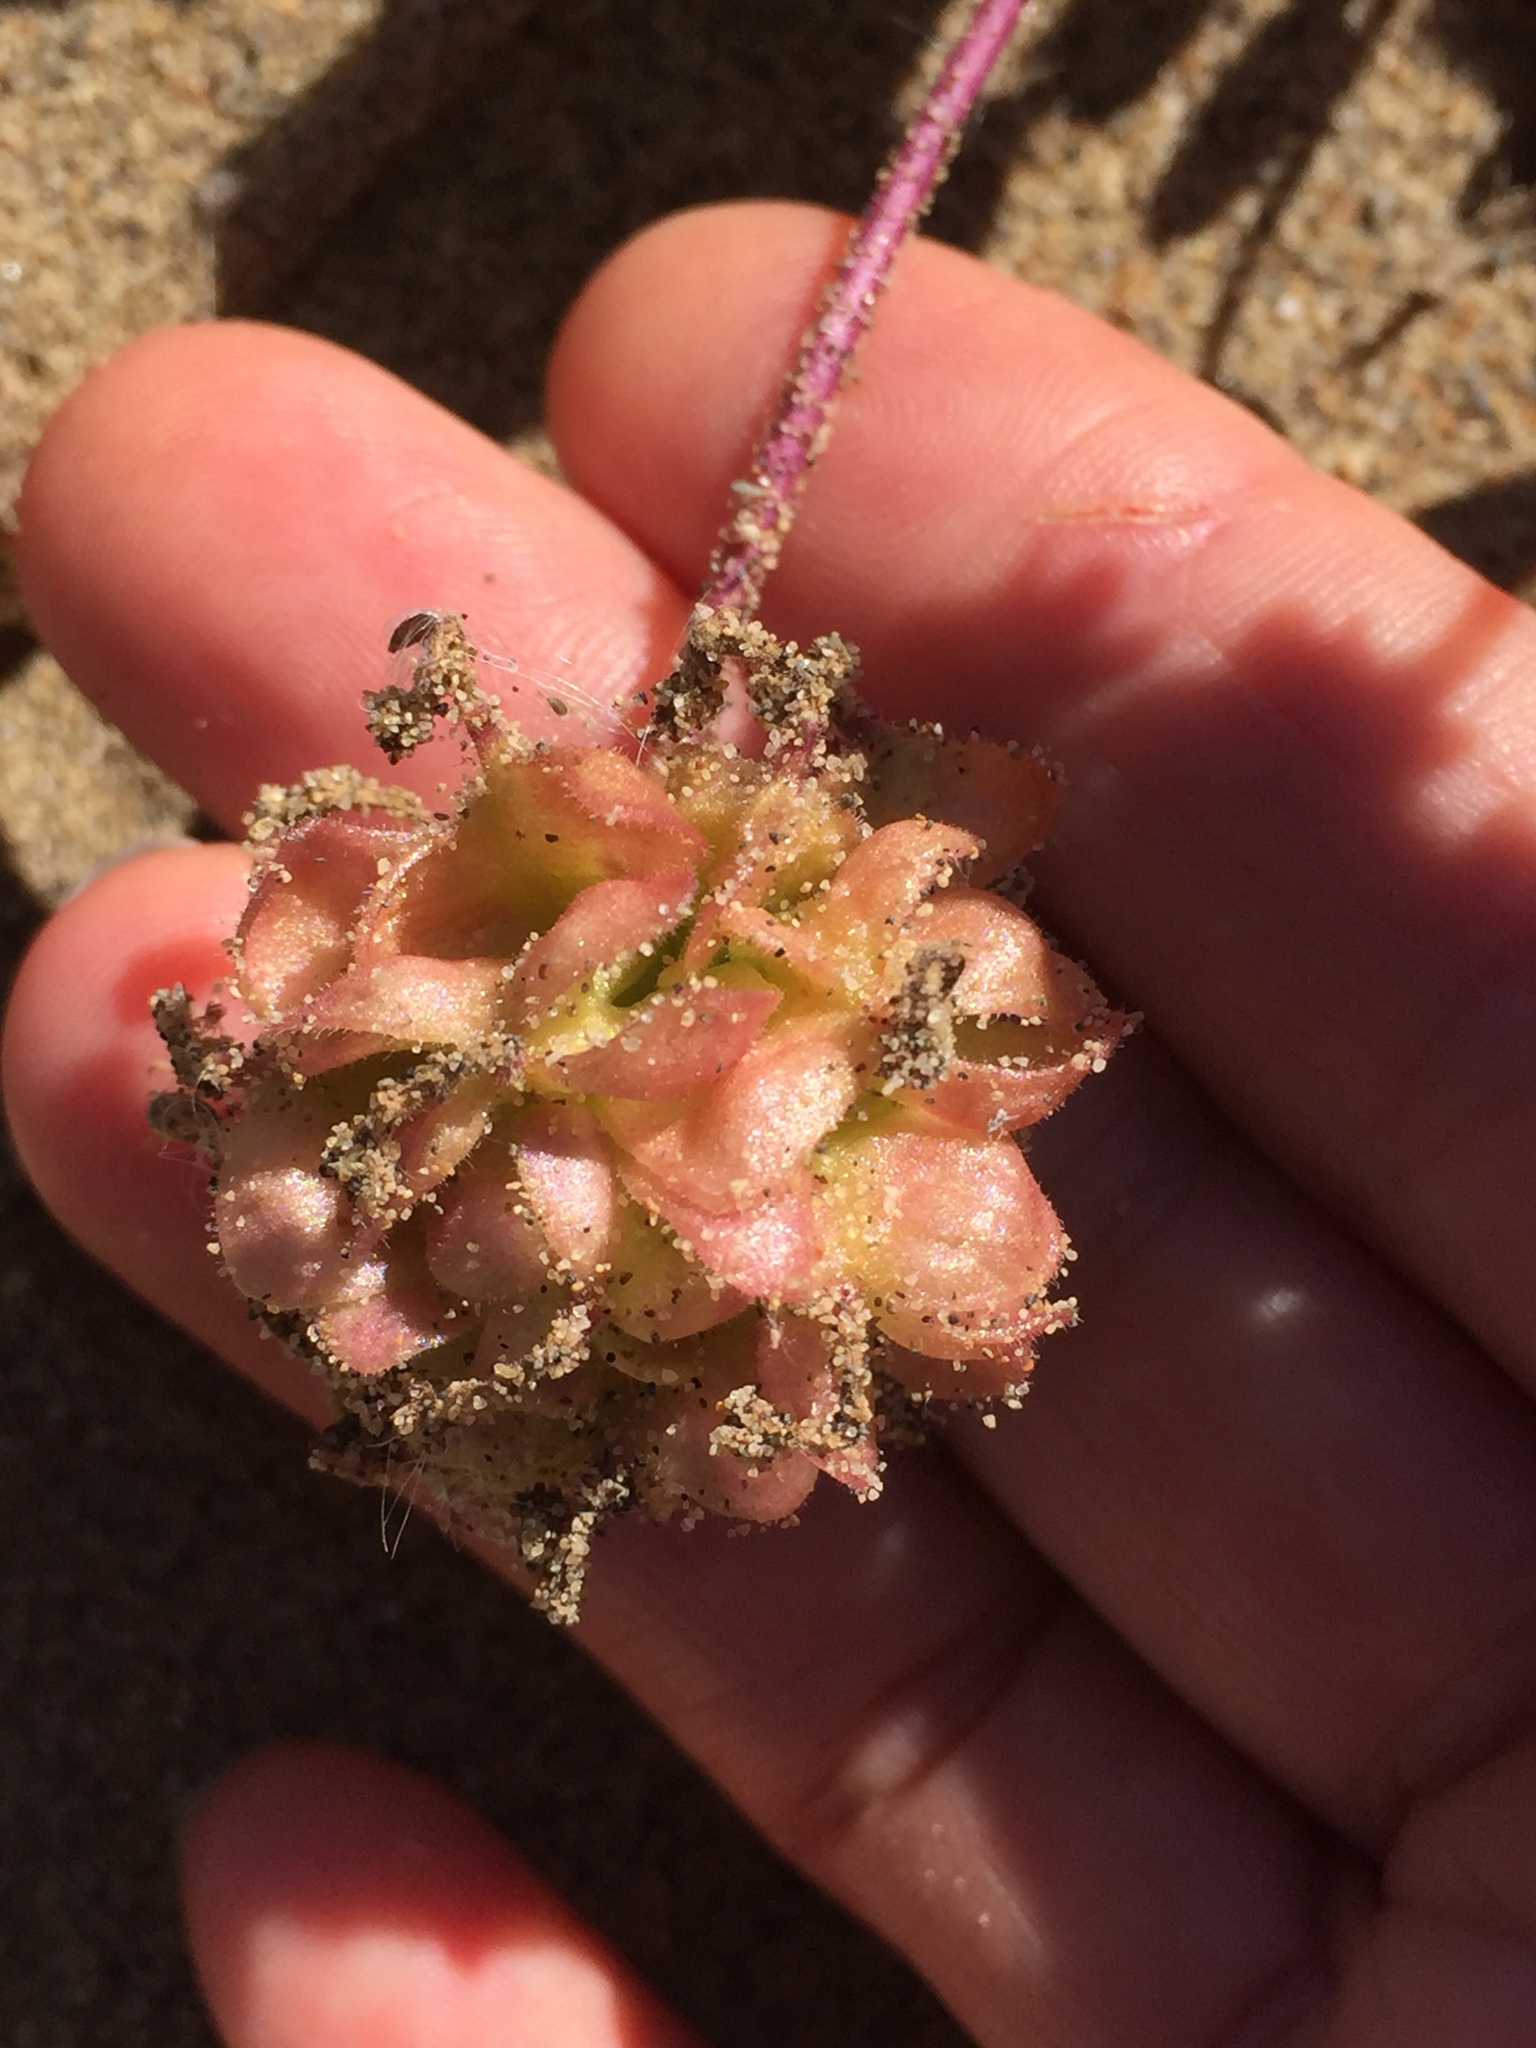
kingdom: Plantae
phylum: Tracheophyta
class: Magnoliopsida
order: Caryophyllales
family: Nyctaginaceae
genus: Abronia
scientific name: Abronia umbellata
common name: Sand-verbena
